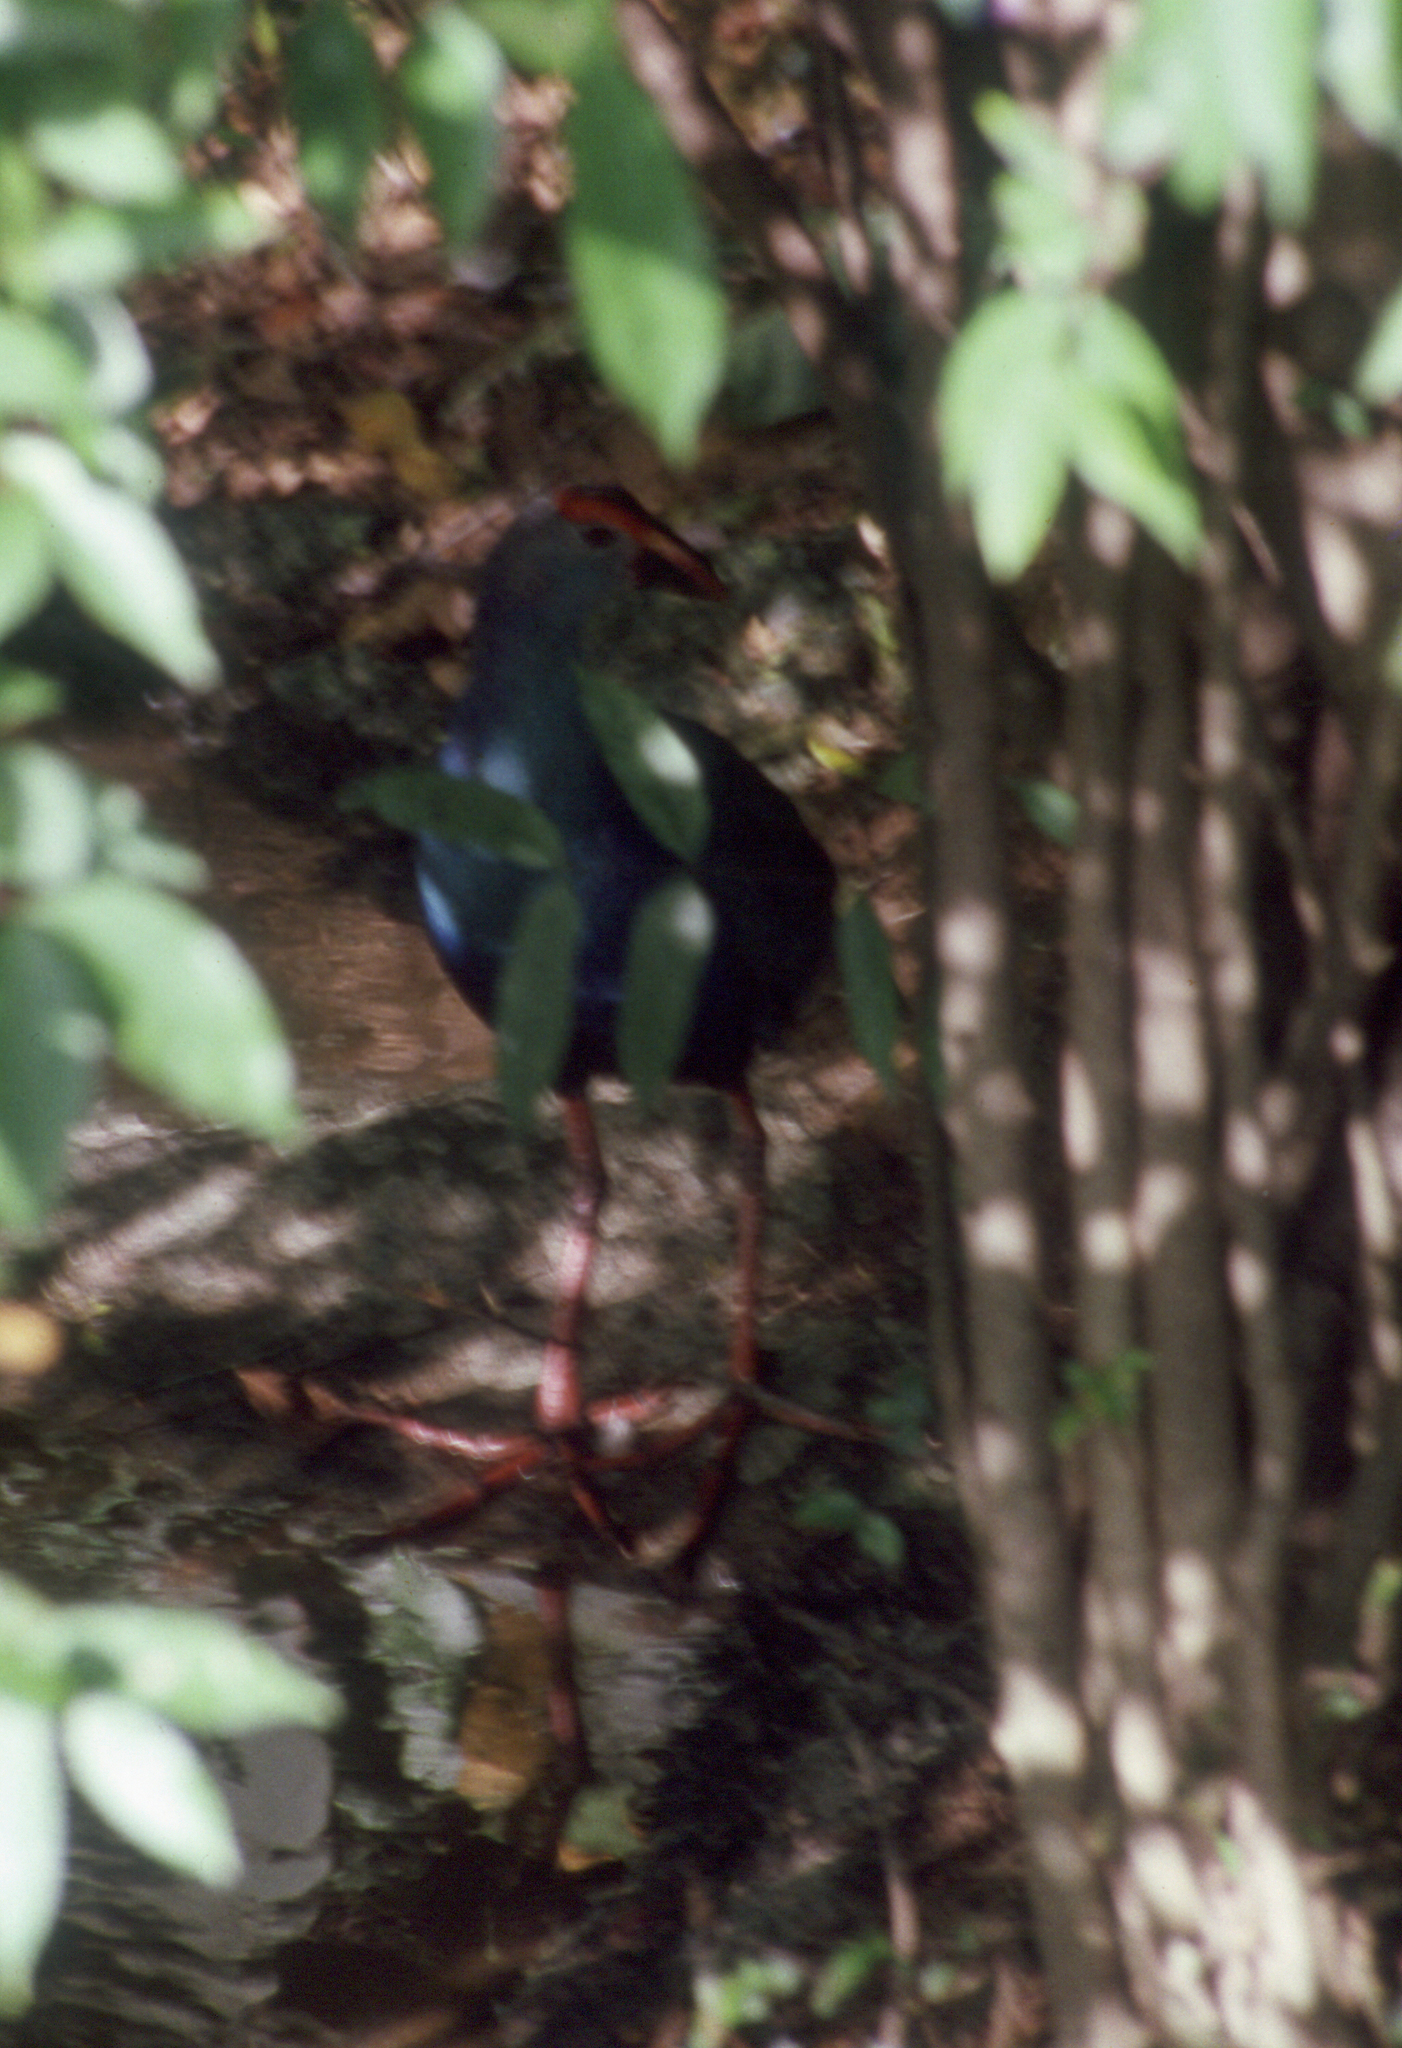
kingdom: Animalia
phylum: Chordata
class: Aves
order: Gruiformes
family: Rallidae
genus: Porphyrio
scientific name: Porphyrio porphyrio
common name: Purple swamphen
